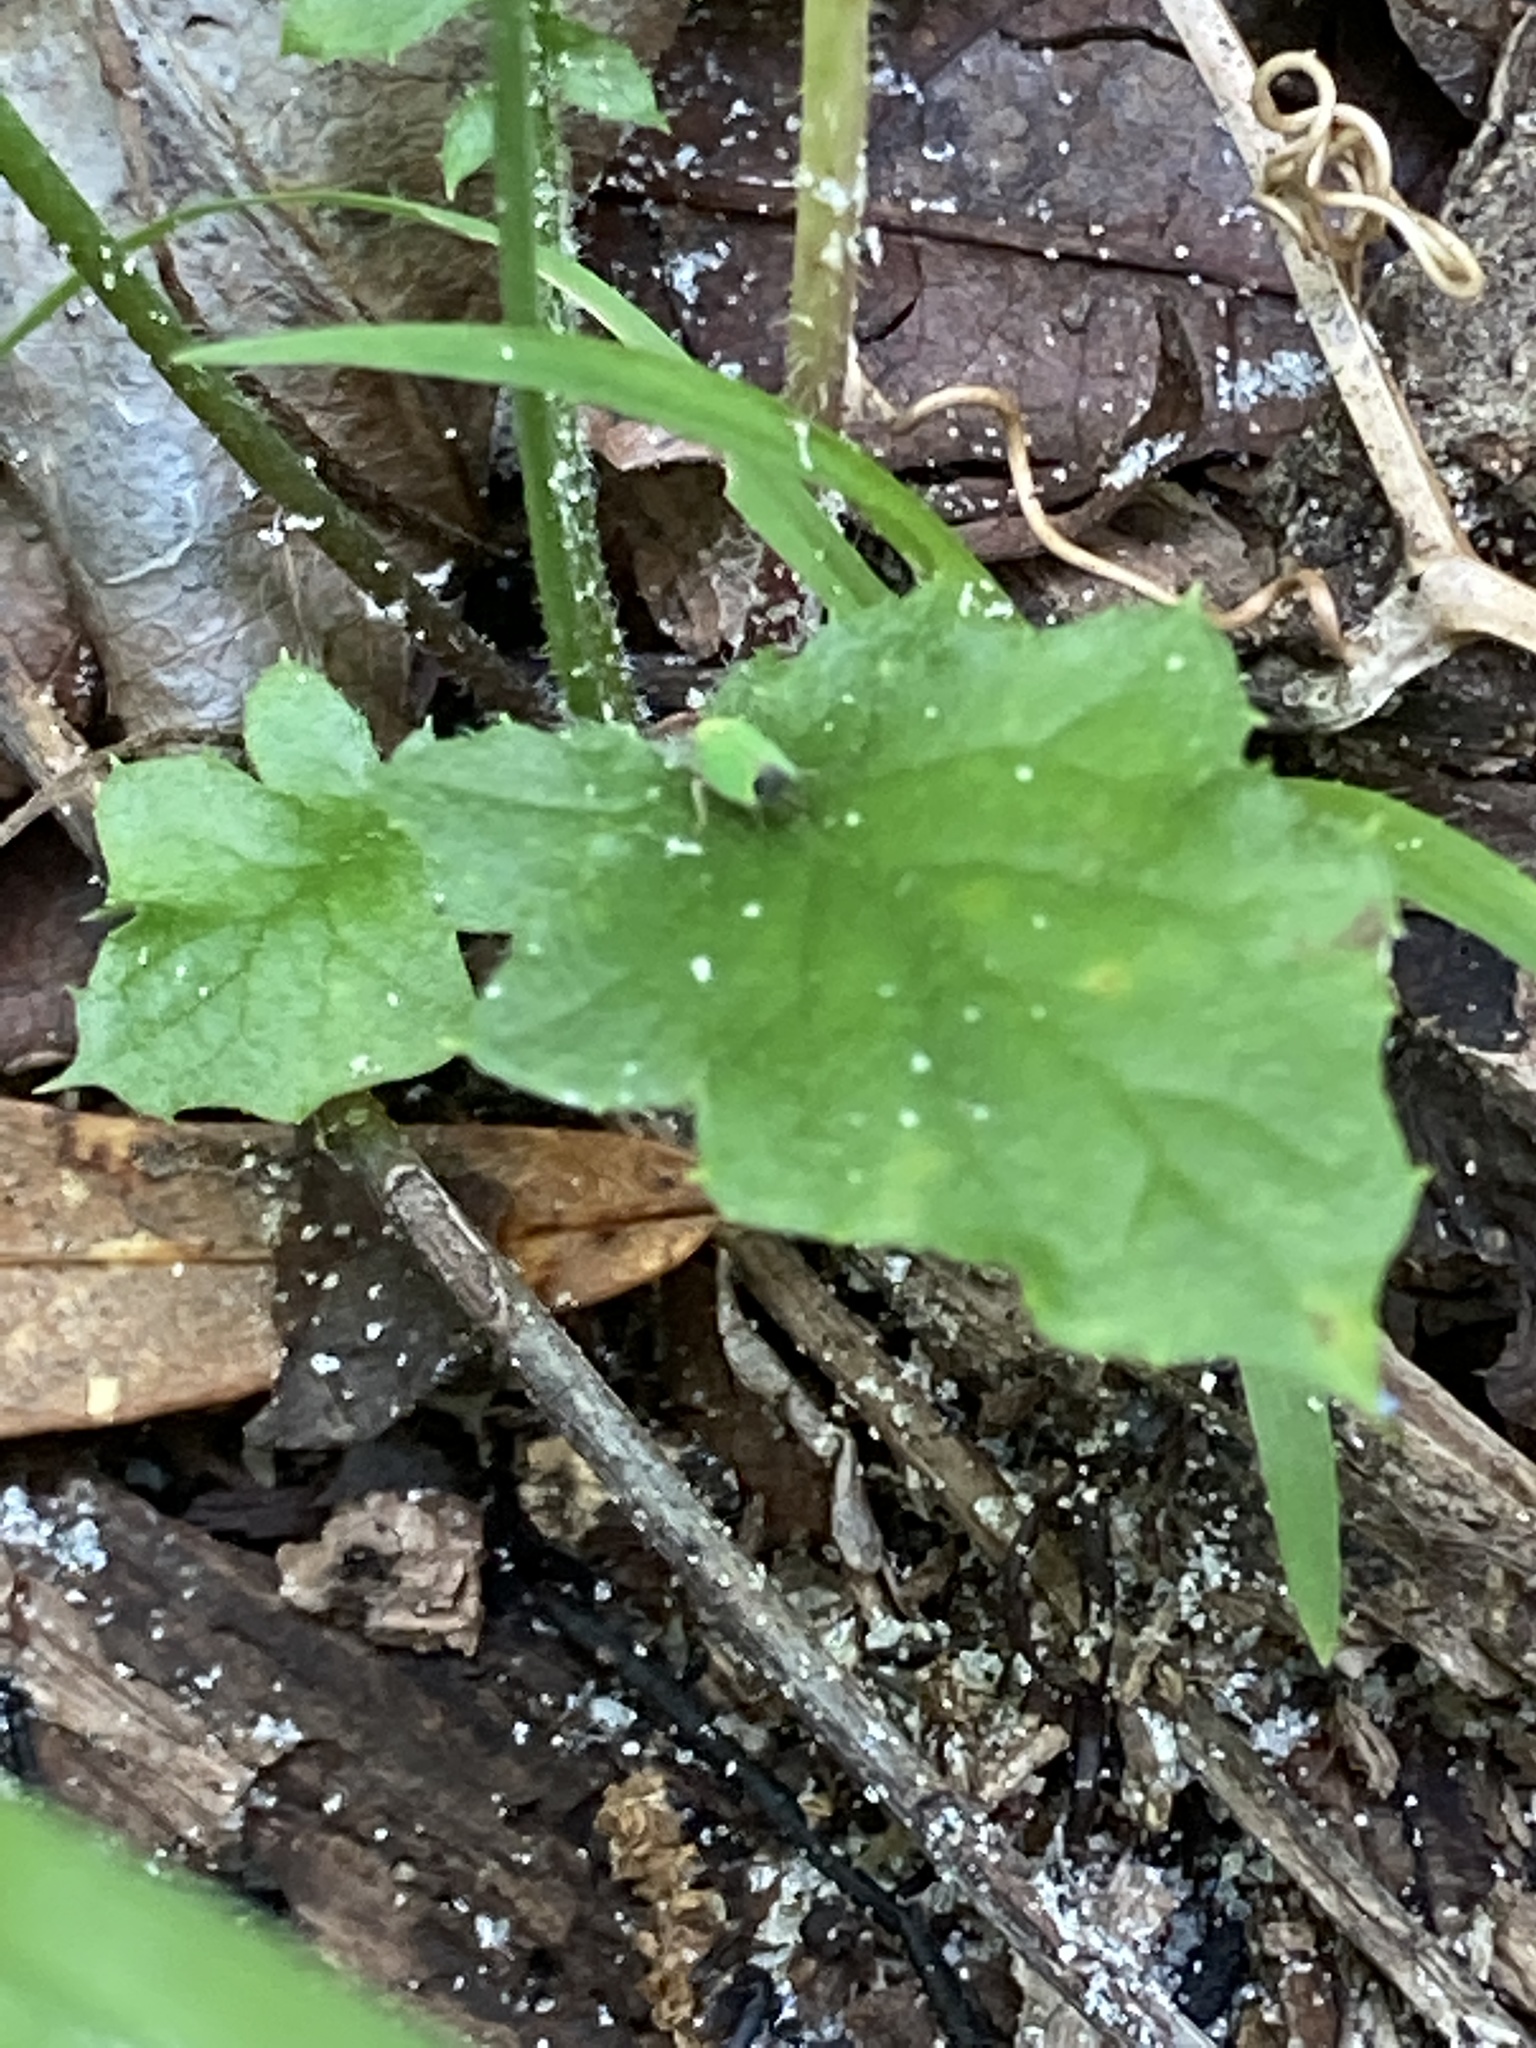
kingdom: Plantae
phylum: Tracheophyta
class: Magnoliopsida
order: Asterales
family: Asteraceae
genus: Youngia
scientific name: Youngia japonica
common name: Oriental false hawksbeard
